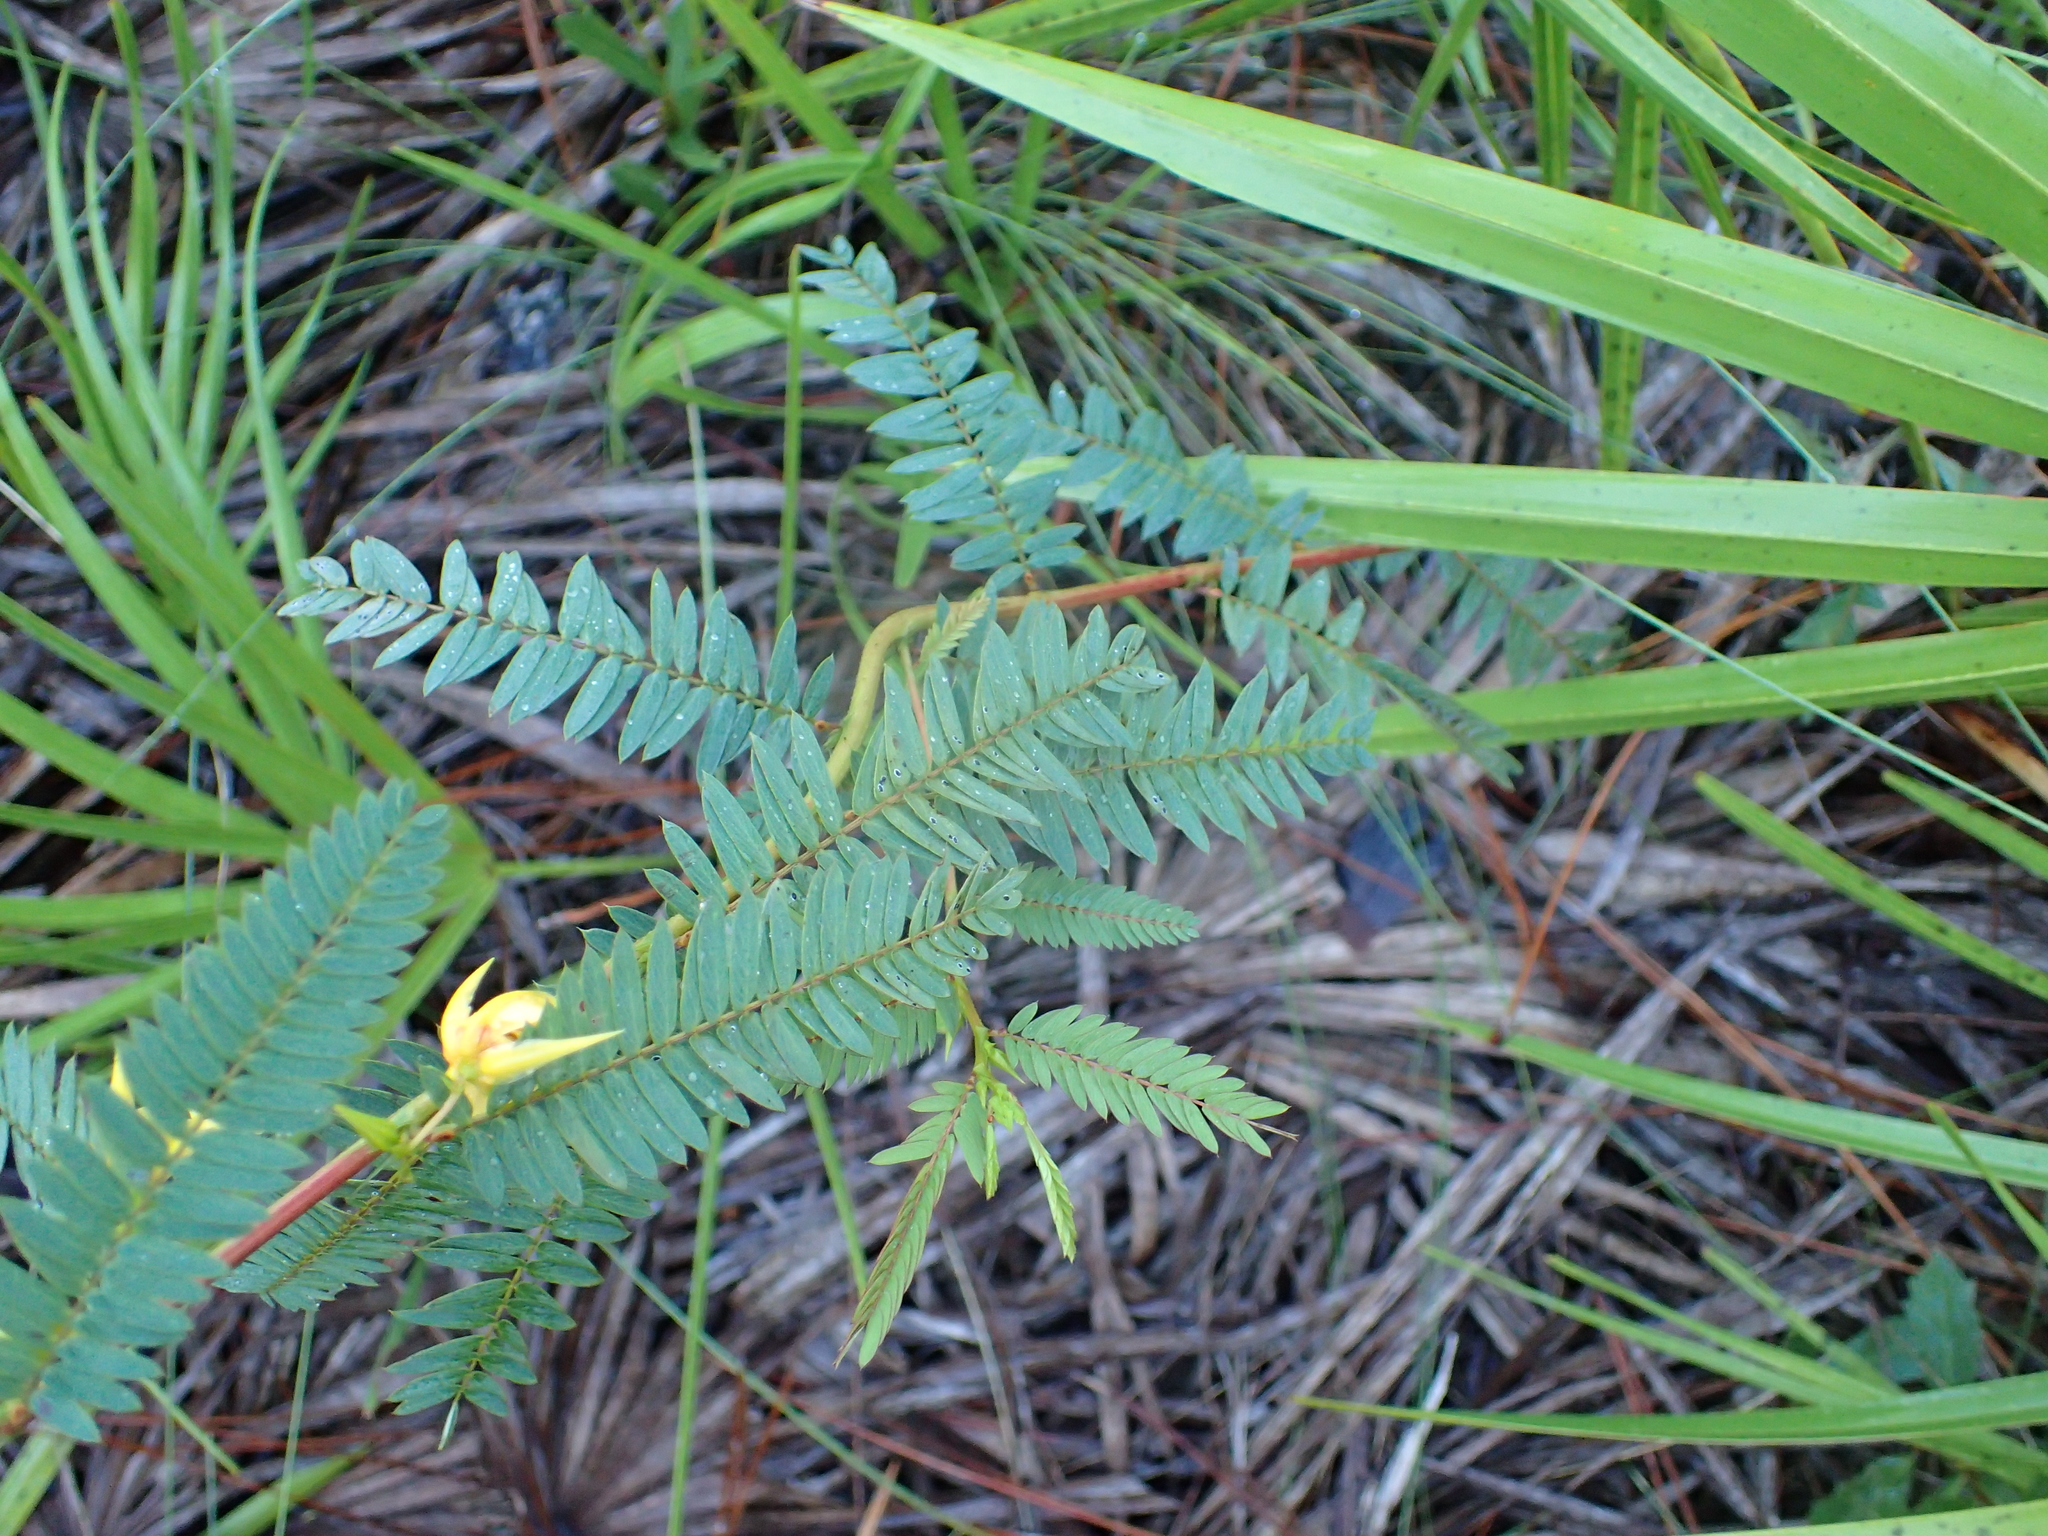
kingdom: Plantae
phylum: Tracheophyta
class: Magnoliopsida
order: Fabales
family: Fabaceae
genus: Chamaecrista
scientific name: Chamaecrista fasciculata
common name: Golden cassia
